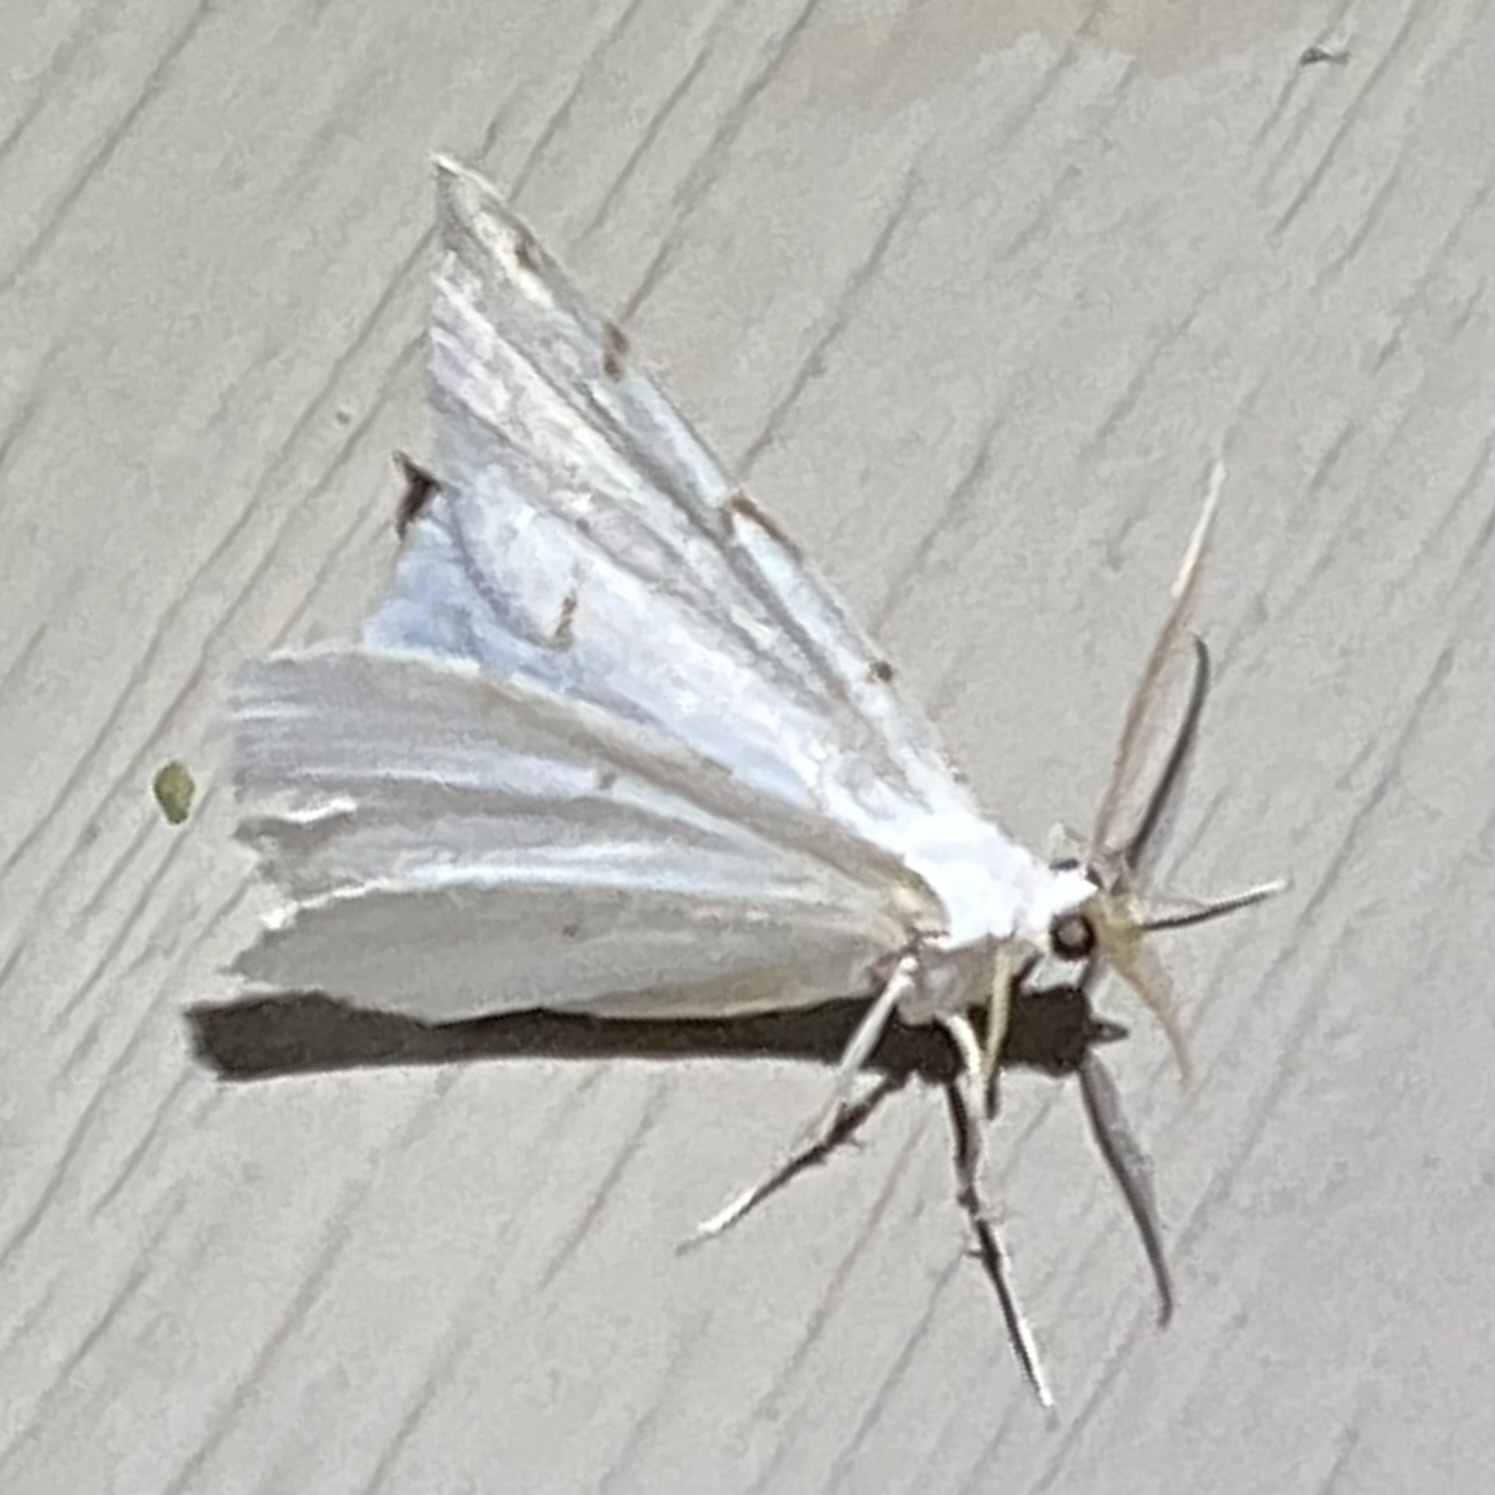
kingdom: Animalia
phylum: Arthropoda
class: Insecta
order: Lepidoptera
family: Geometridae
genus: Macaria
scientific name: Macaria pustularia
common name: Lesser maple spanworm moth
